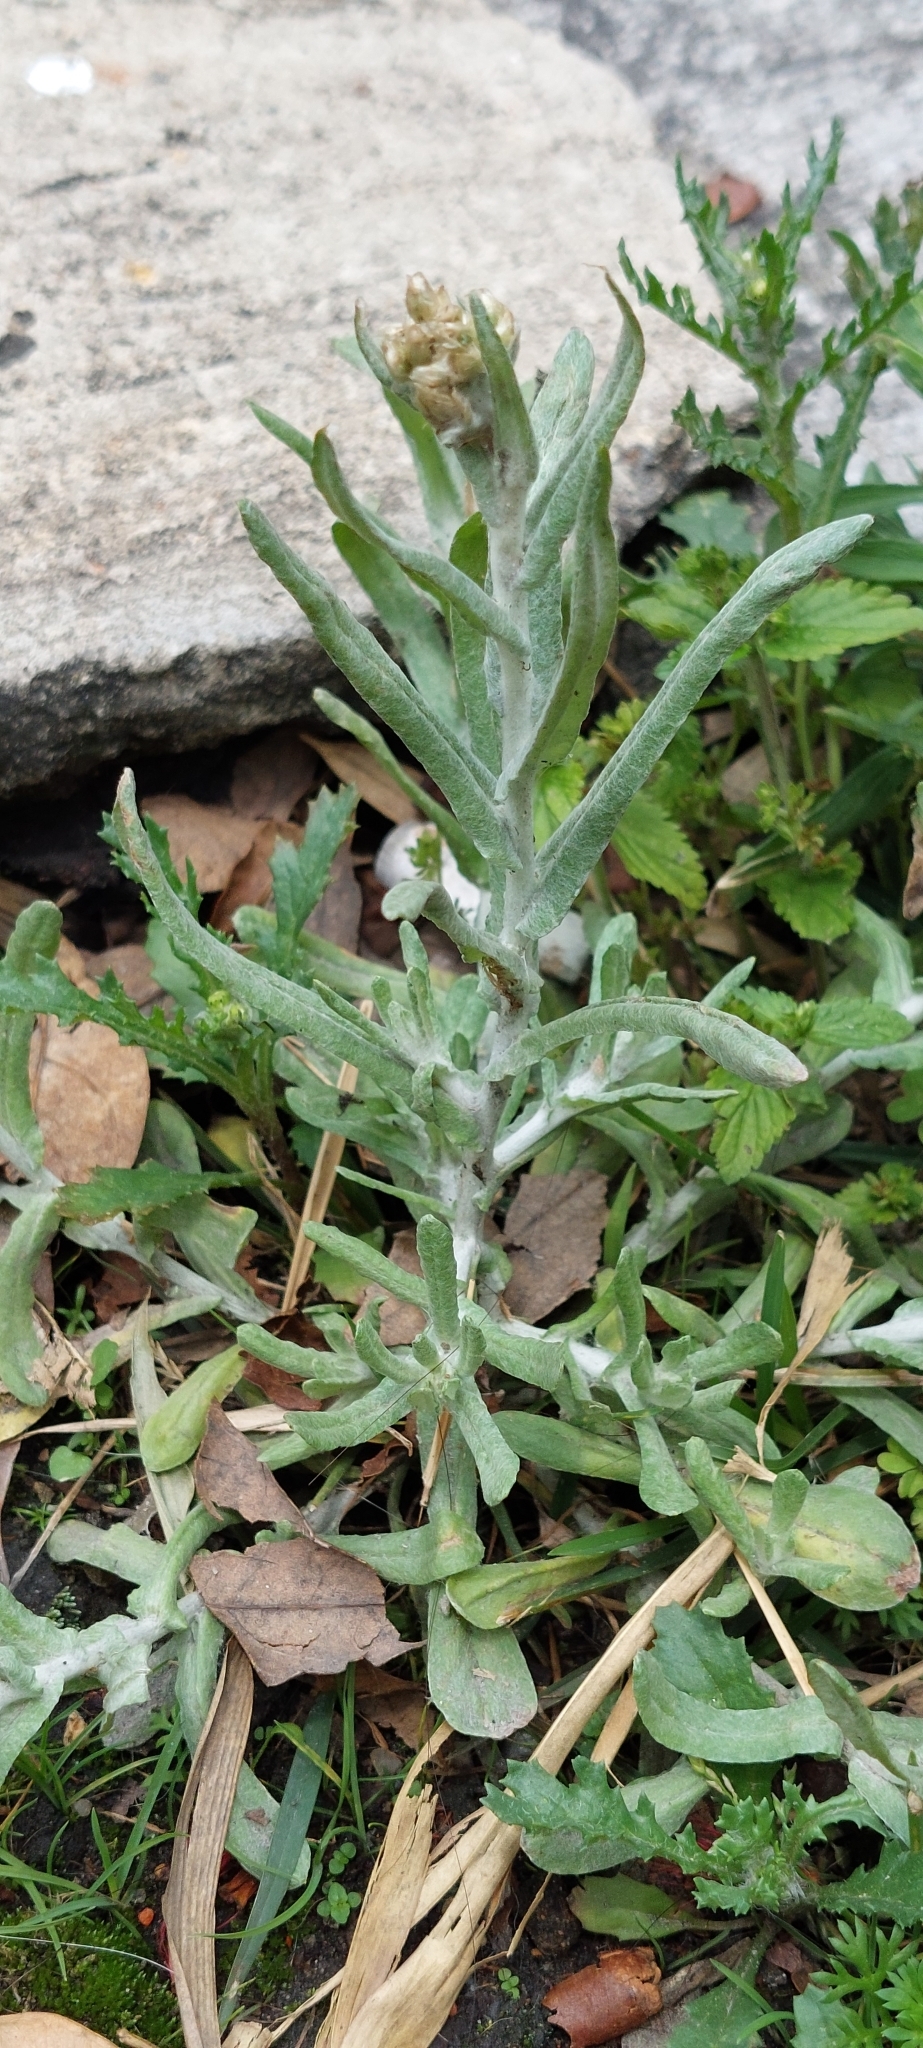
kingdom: Plantae
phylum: Tracheophyta
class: Magnoliopsida
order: Asterales
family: Asteraceae
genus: Helichrysum
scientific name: Helichrysum luteoalbum
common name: Daisy
